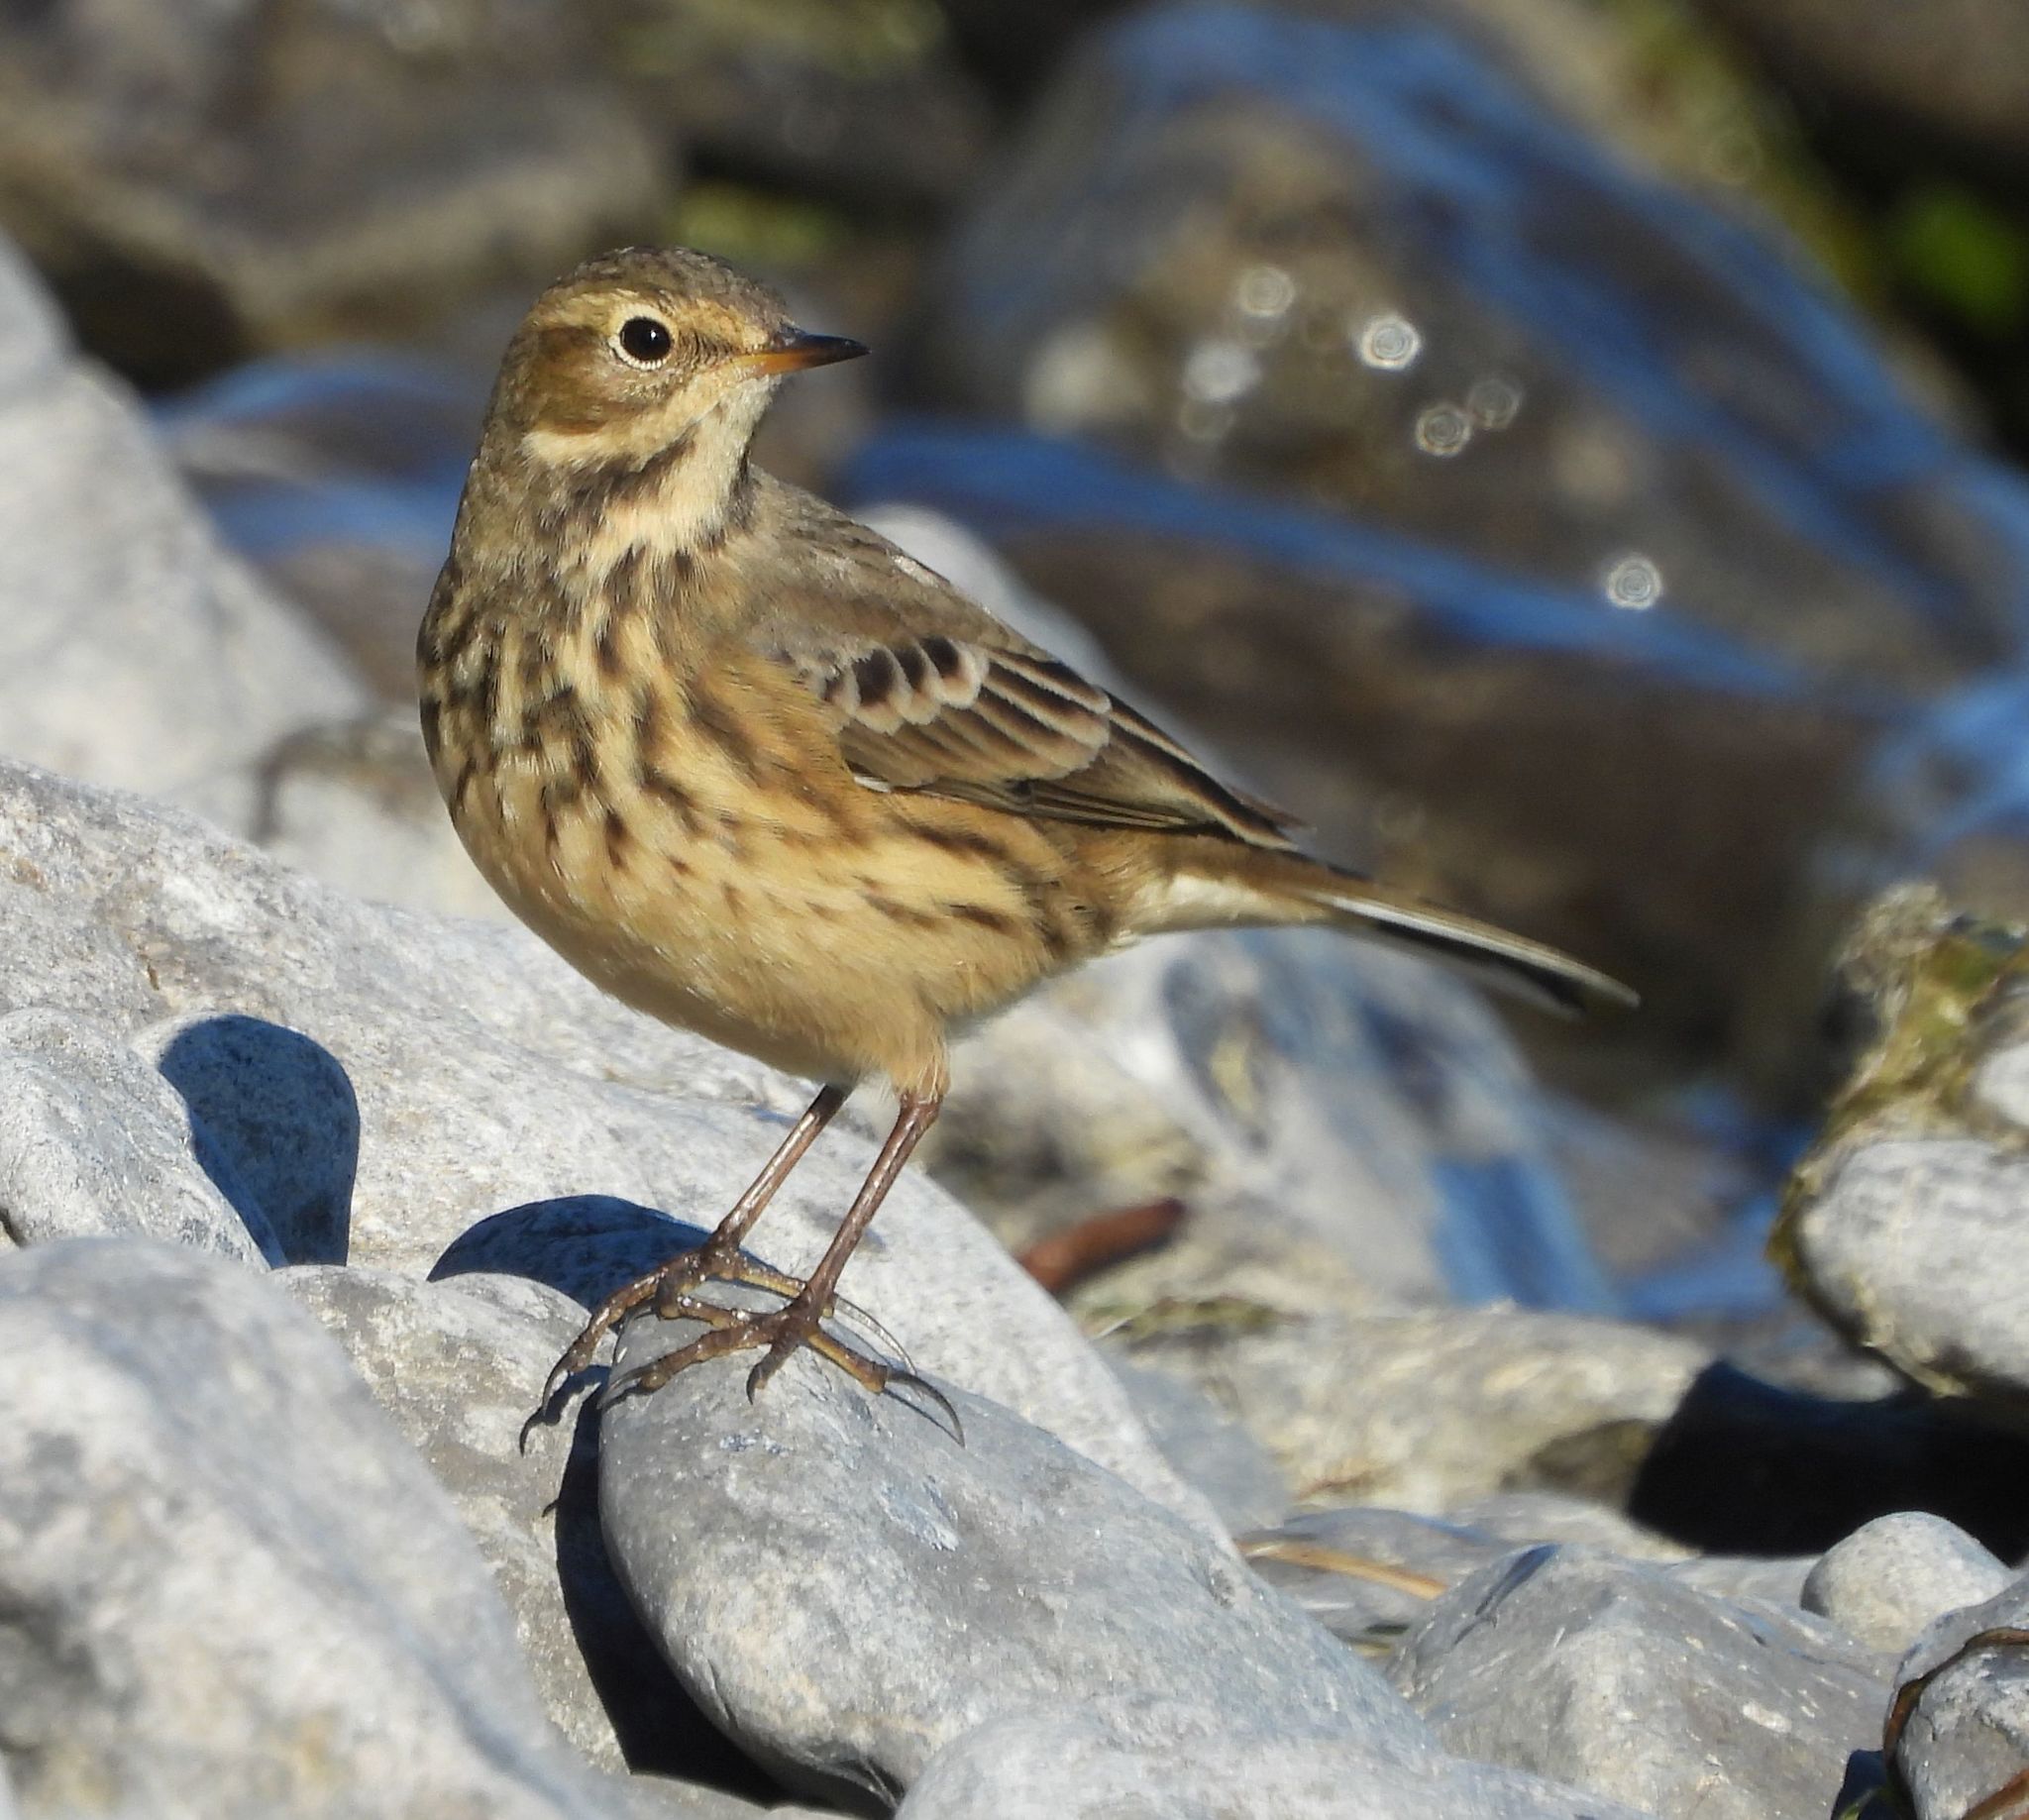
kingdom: Animalia
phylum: Chordata
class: Aves
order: Passeriformes
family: Motacillidae
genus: Anthus
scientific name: Anthus rubescens
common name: Buff-bellied pipit
